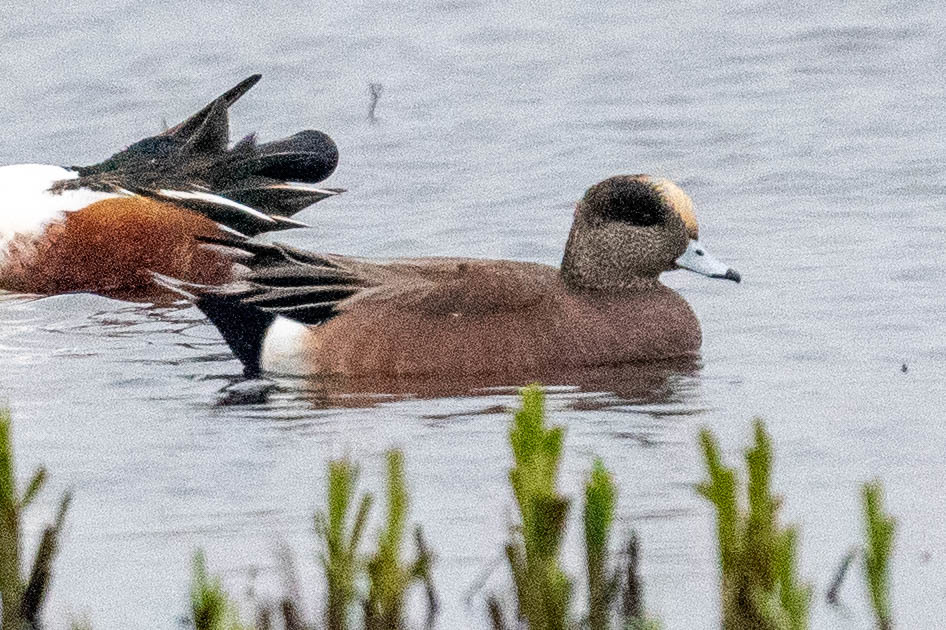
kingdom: Animalia
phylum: Chordata
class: Aves
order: Anseriformes
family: Anatidae
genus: Mareca
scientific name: Mareca americana
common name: American wigeon
